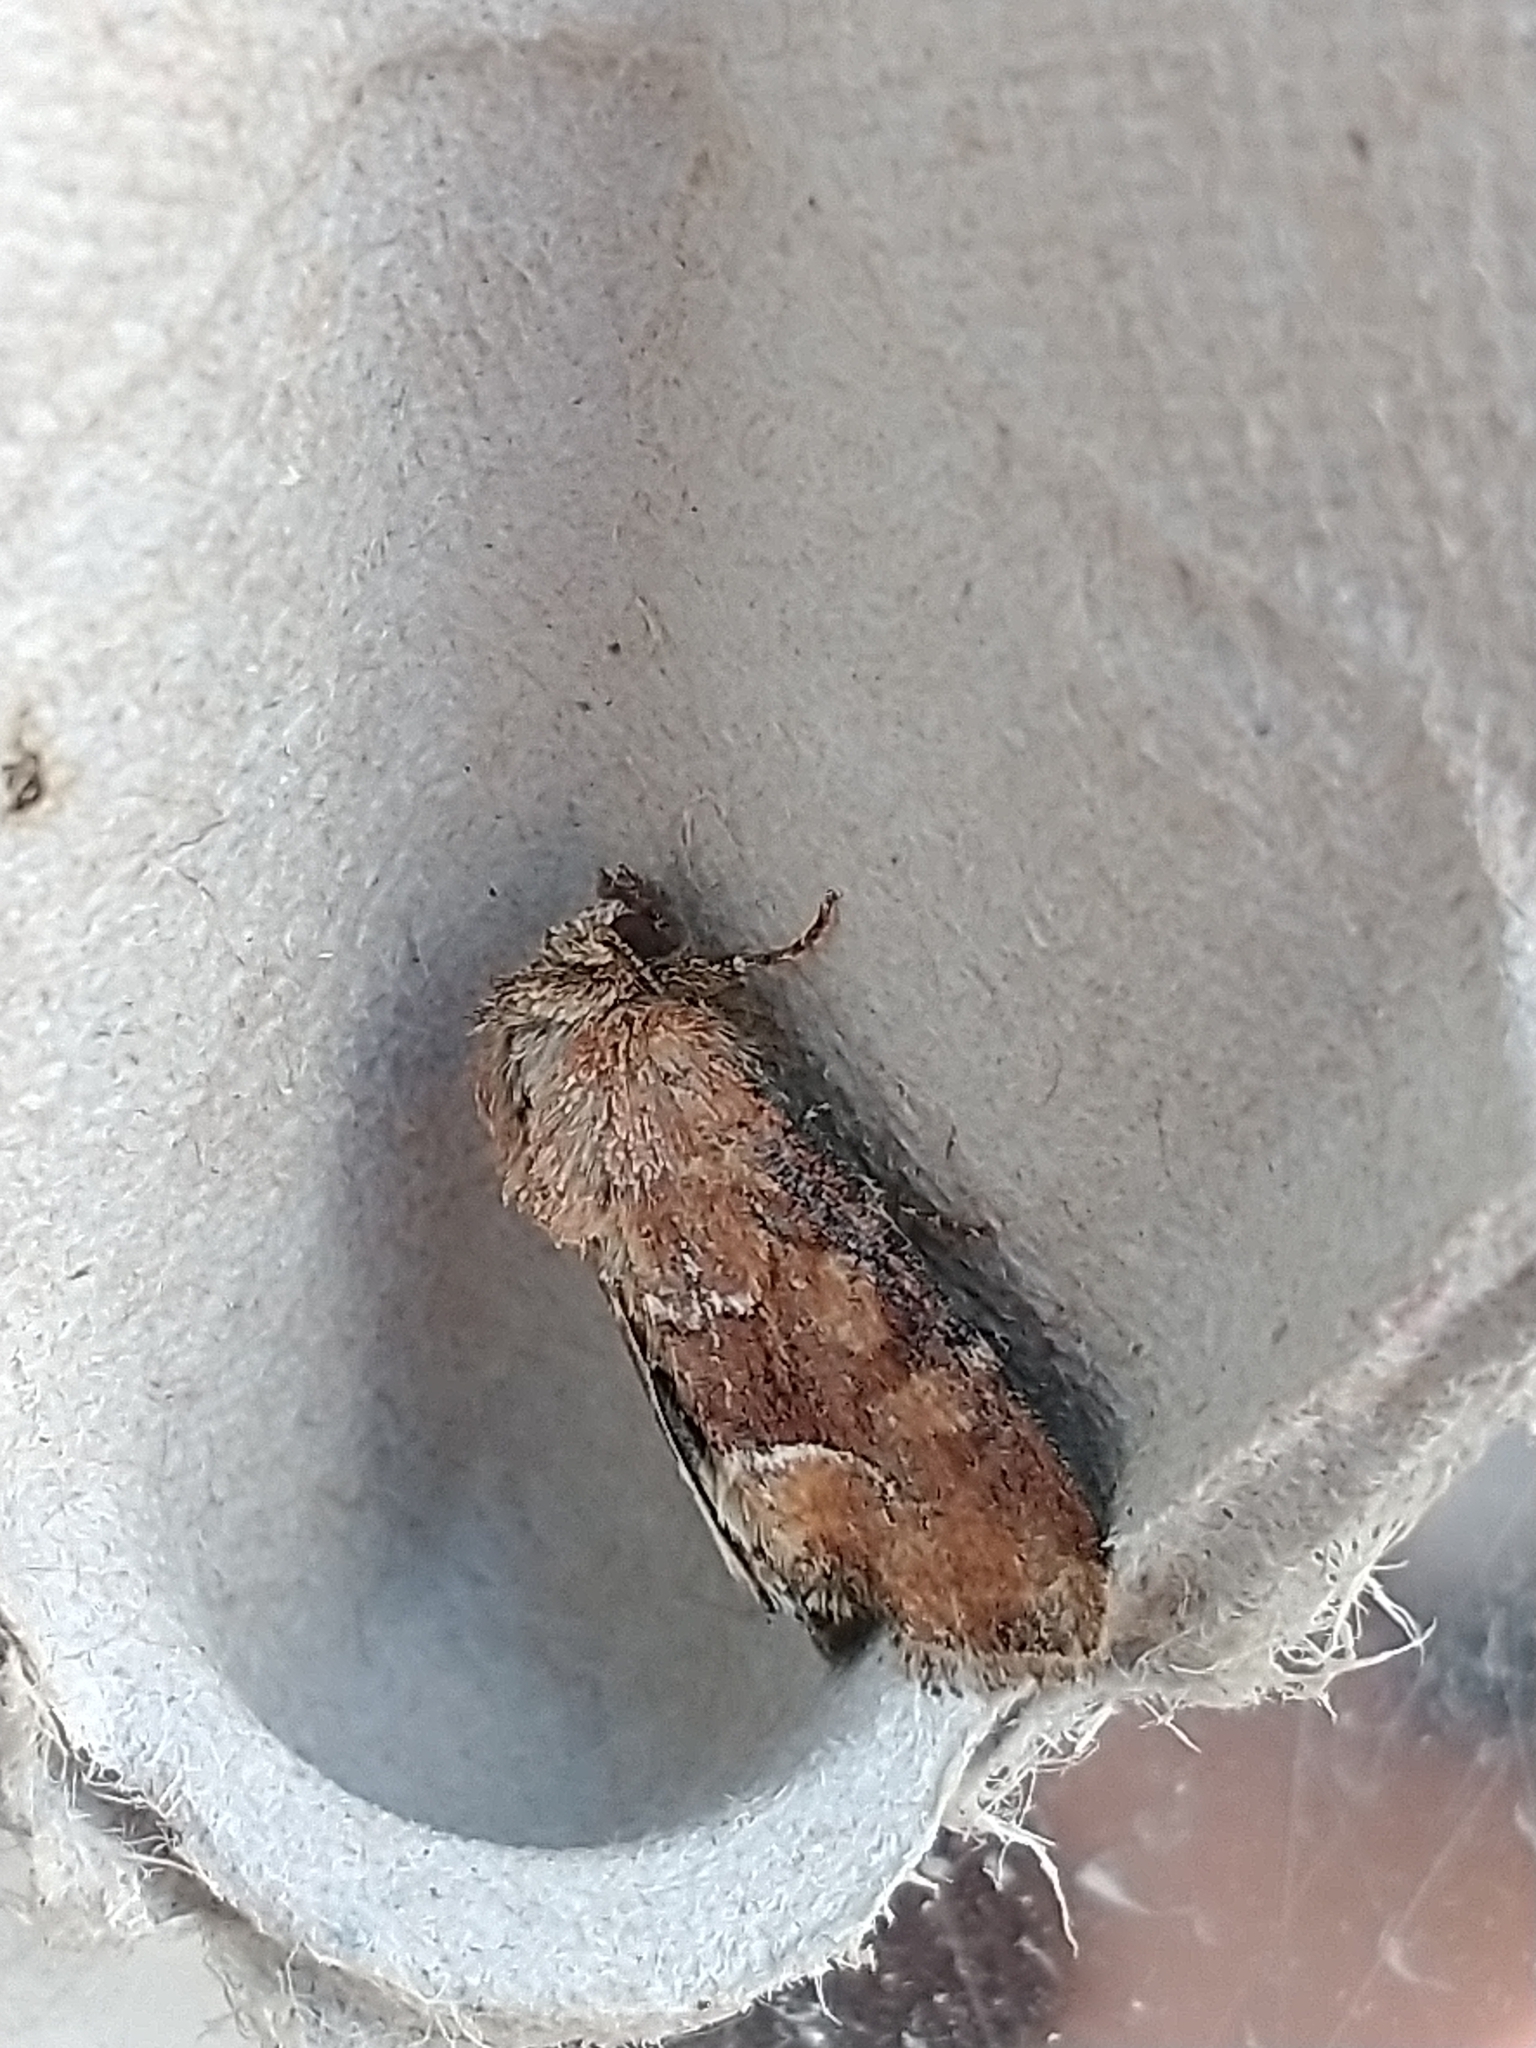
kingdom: Animalia
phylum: Arthropoda
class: Insecta
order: Lepidoptera
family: Noctuidae
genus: Oligia
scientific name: Oligia fasciuncula
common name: Middle-barred minor
